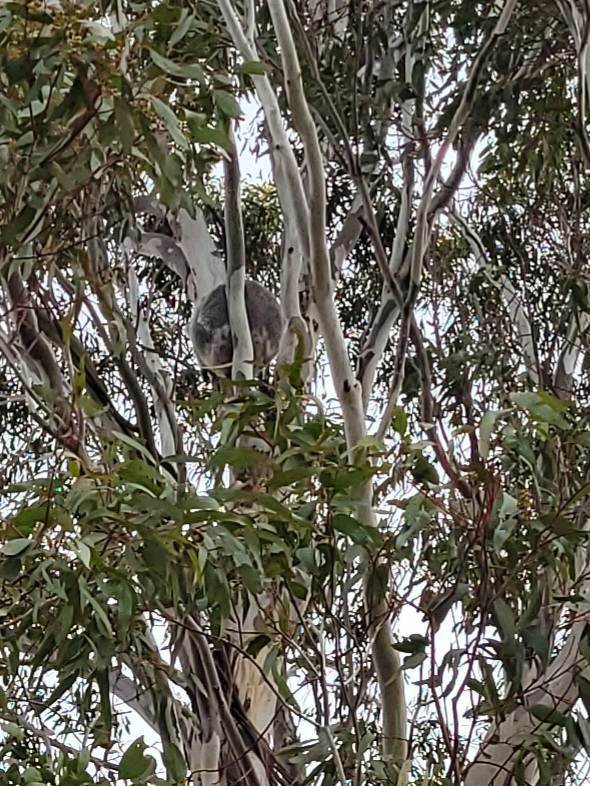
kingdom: Animalia
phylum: Chordata
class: Mammalia
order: Diprotodontia
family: Phascolarctidae
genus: Phascolarctos
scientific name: Phascolarctos cinereus
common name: Koala
